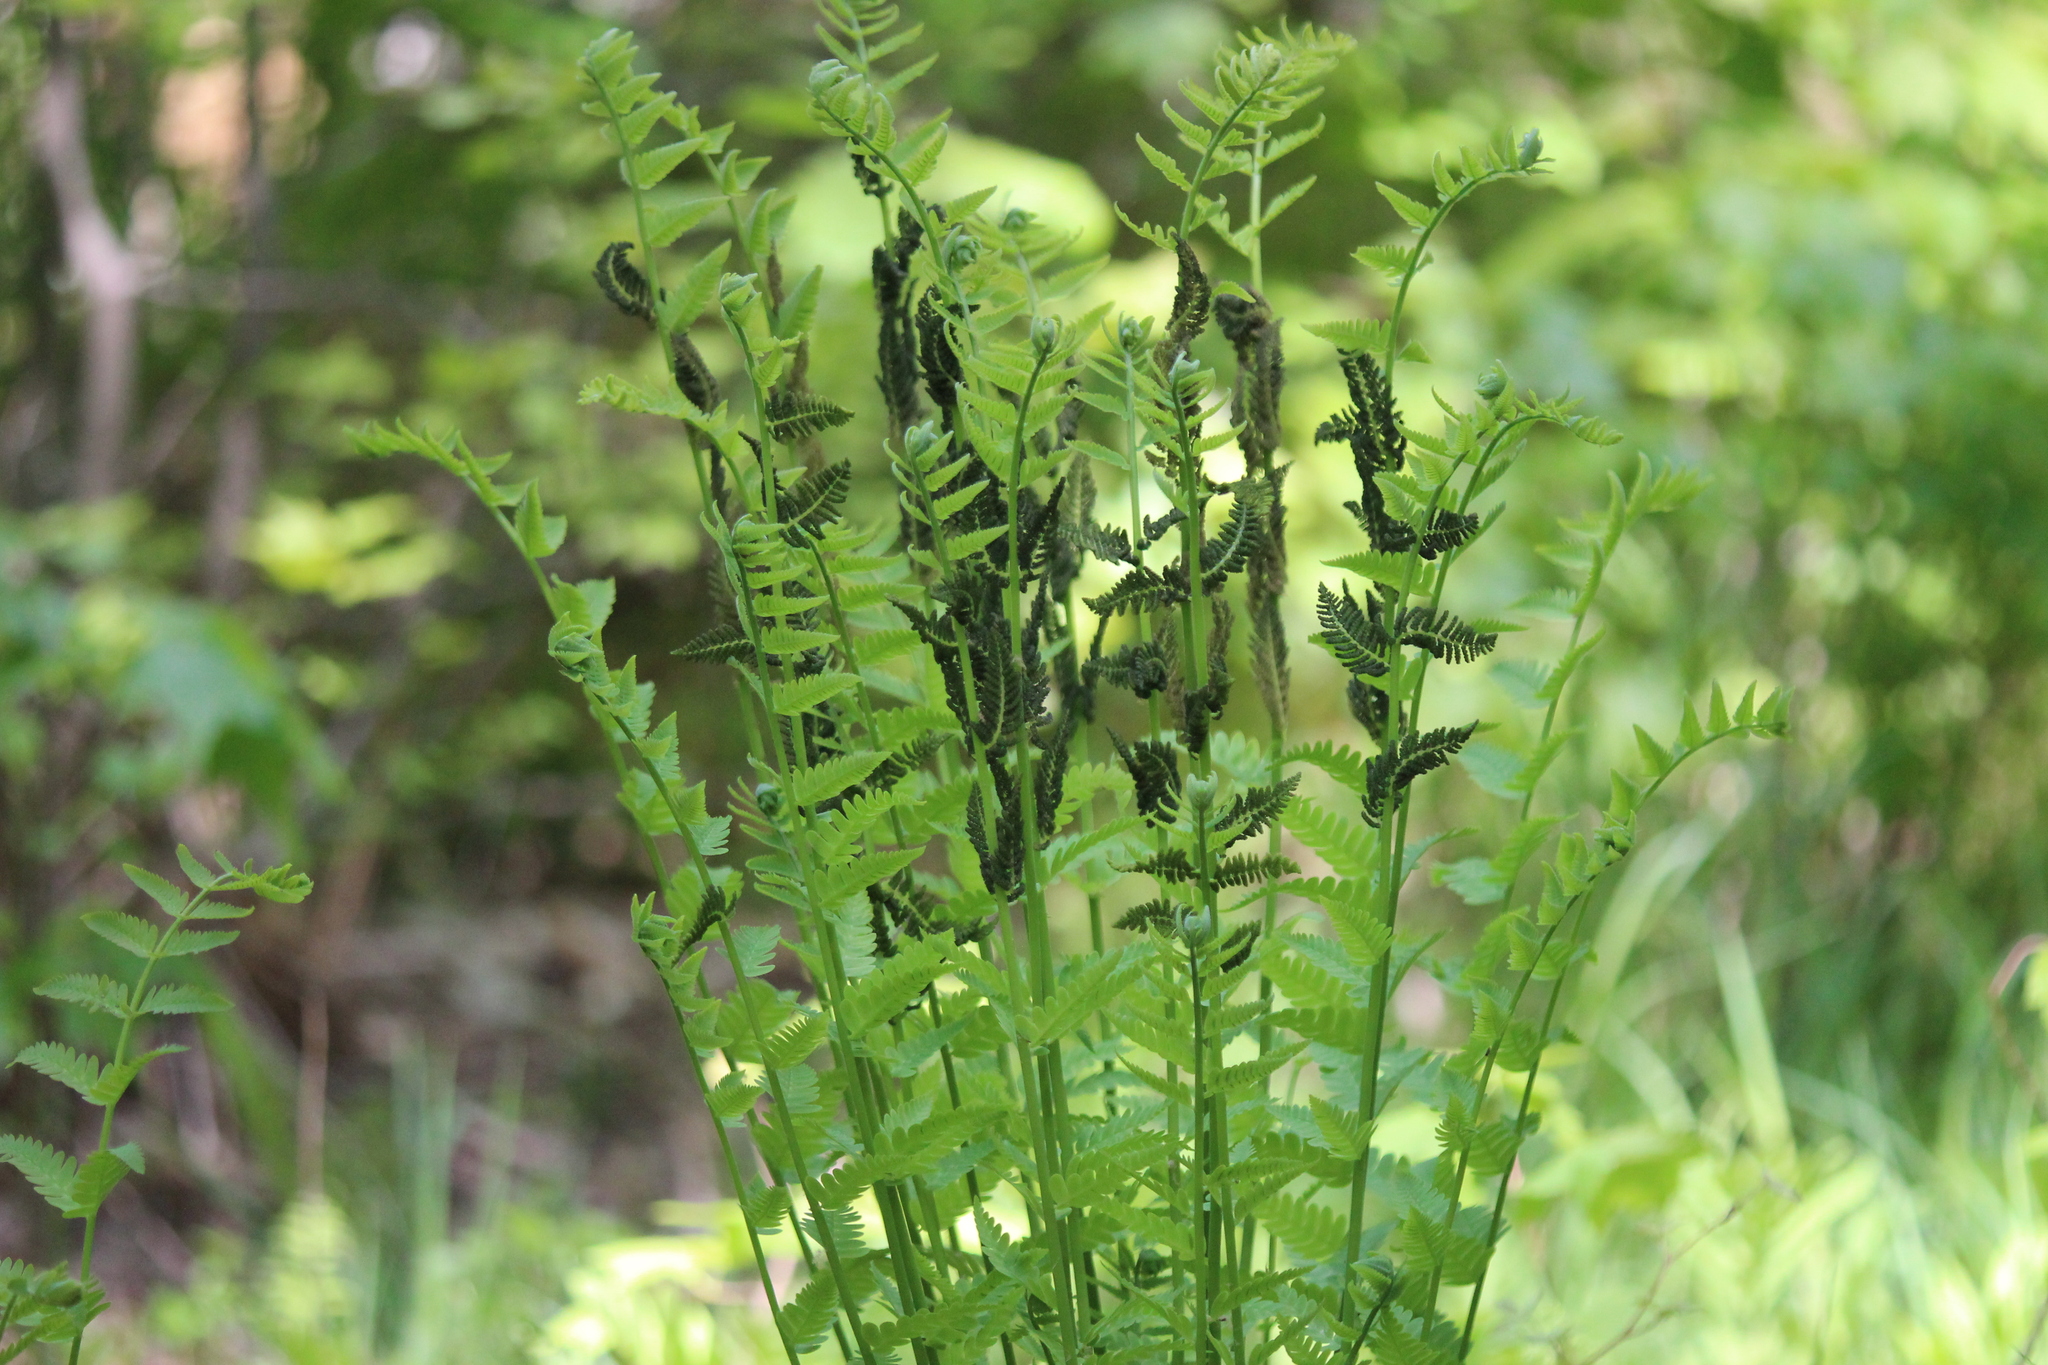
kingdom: Plantae
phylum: Tracheophyta
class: Polypodiopsida
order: Osmundales
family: Osmundaceae
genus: Claytosmunda
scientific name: Claytosmunda claytoniana
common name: Clayton's fern
